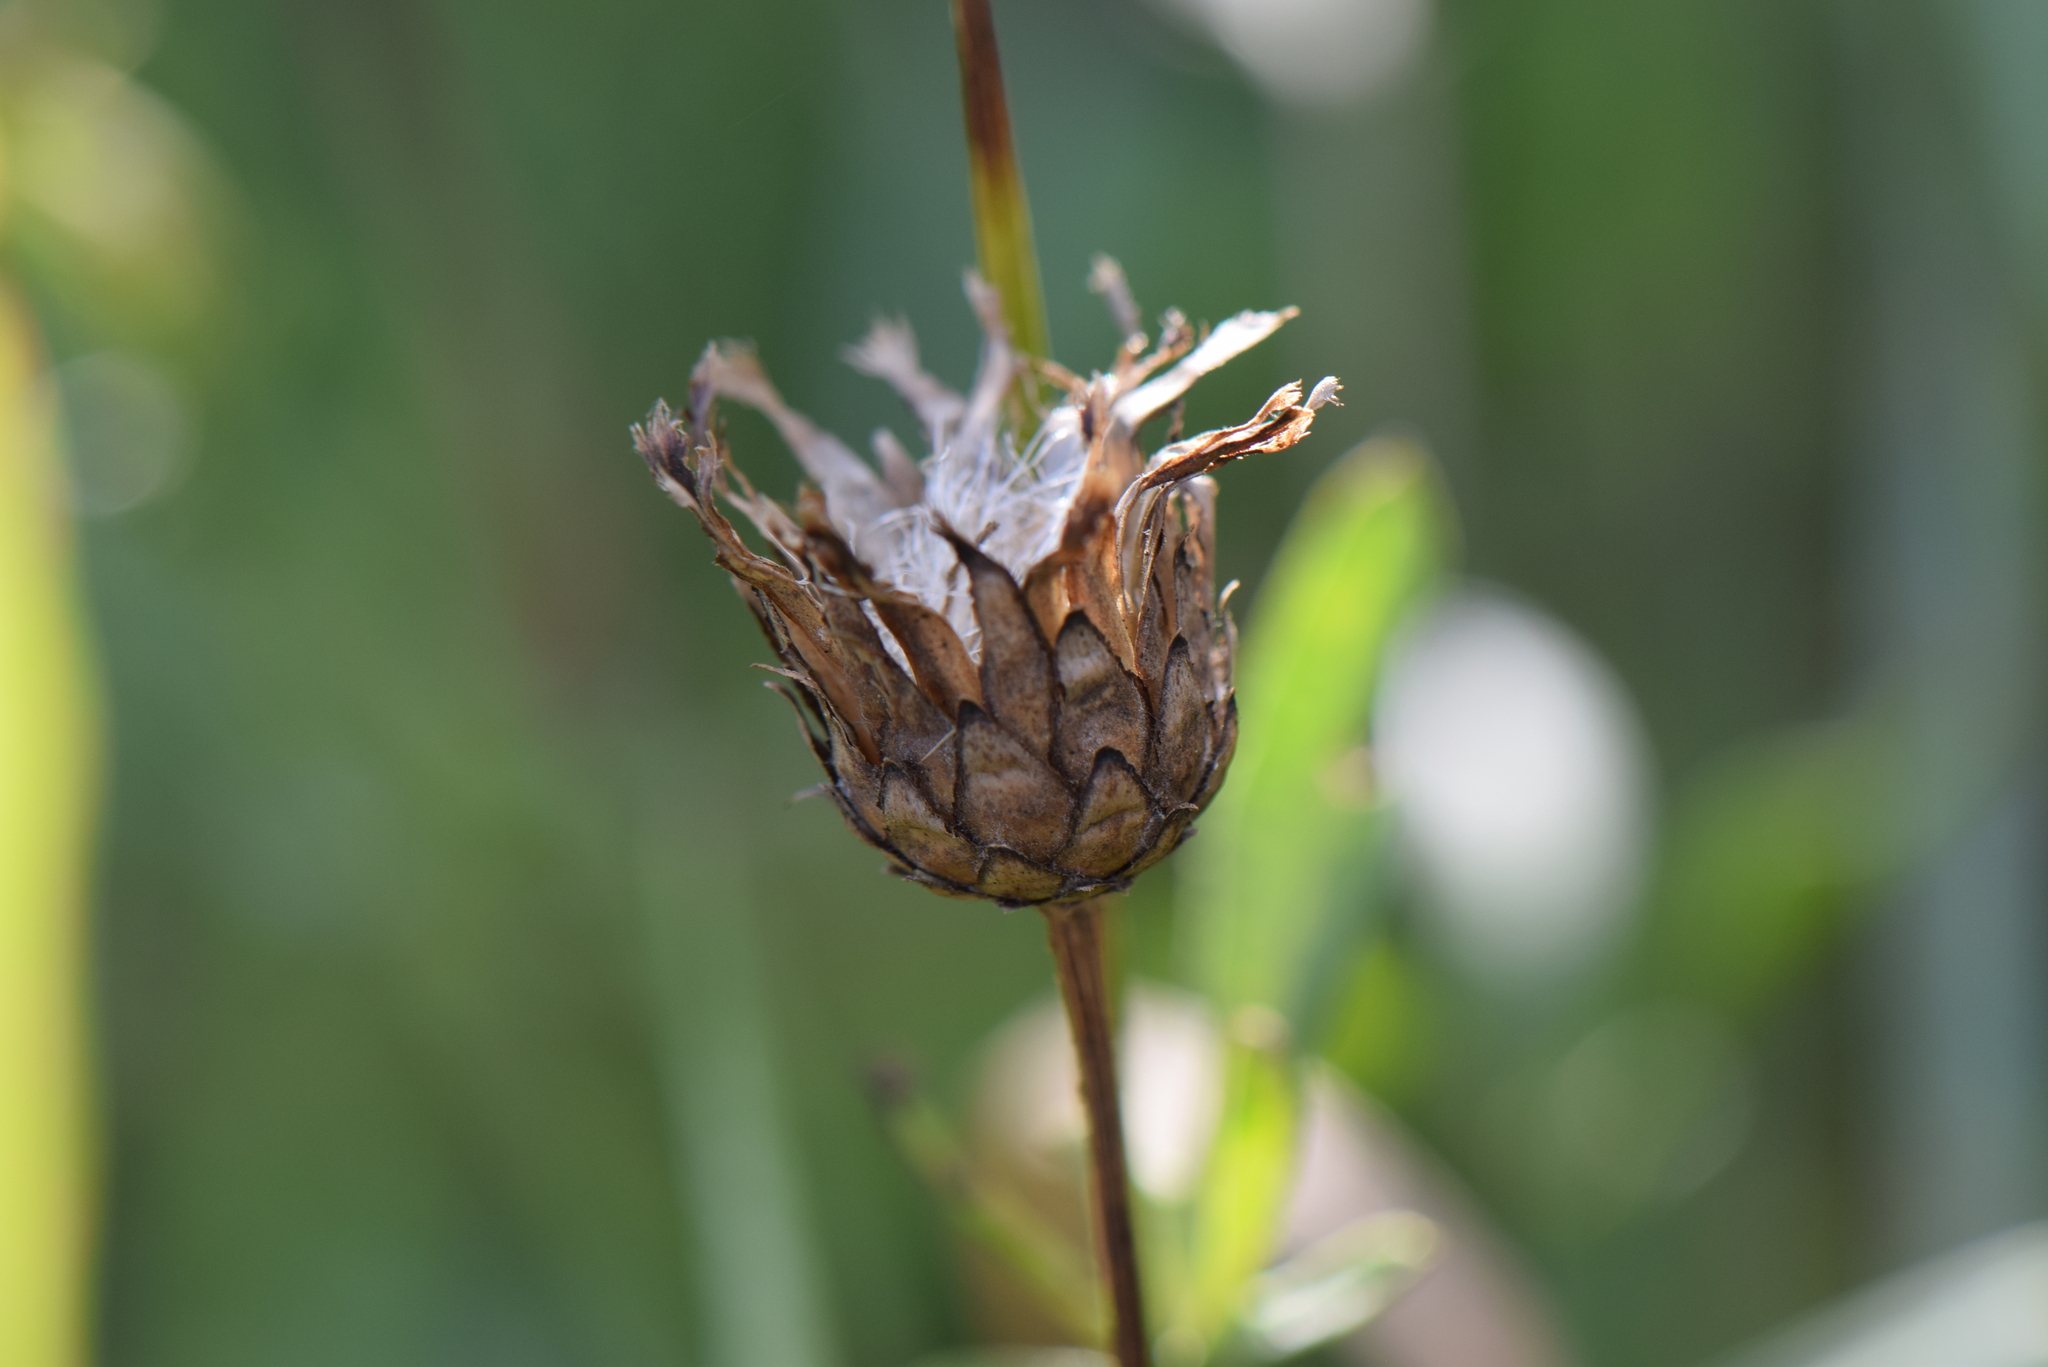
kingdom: Plantae
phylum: Tracheophyta
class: Magnoliopsida
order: Asterales
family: Asteraceae
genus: Centaurea
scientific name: Centaurea scabiosa
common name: Greater knapweed
